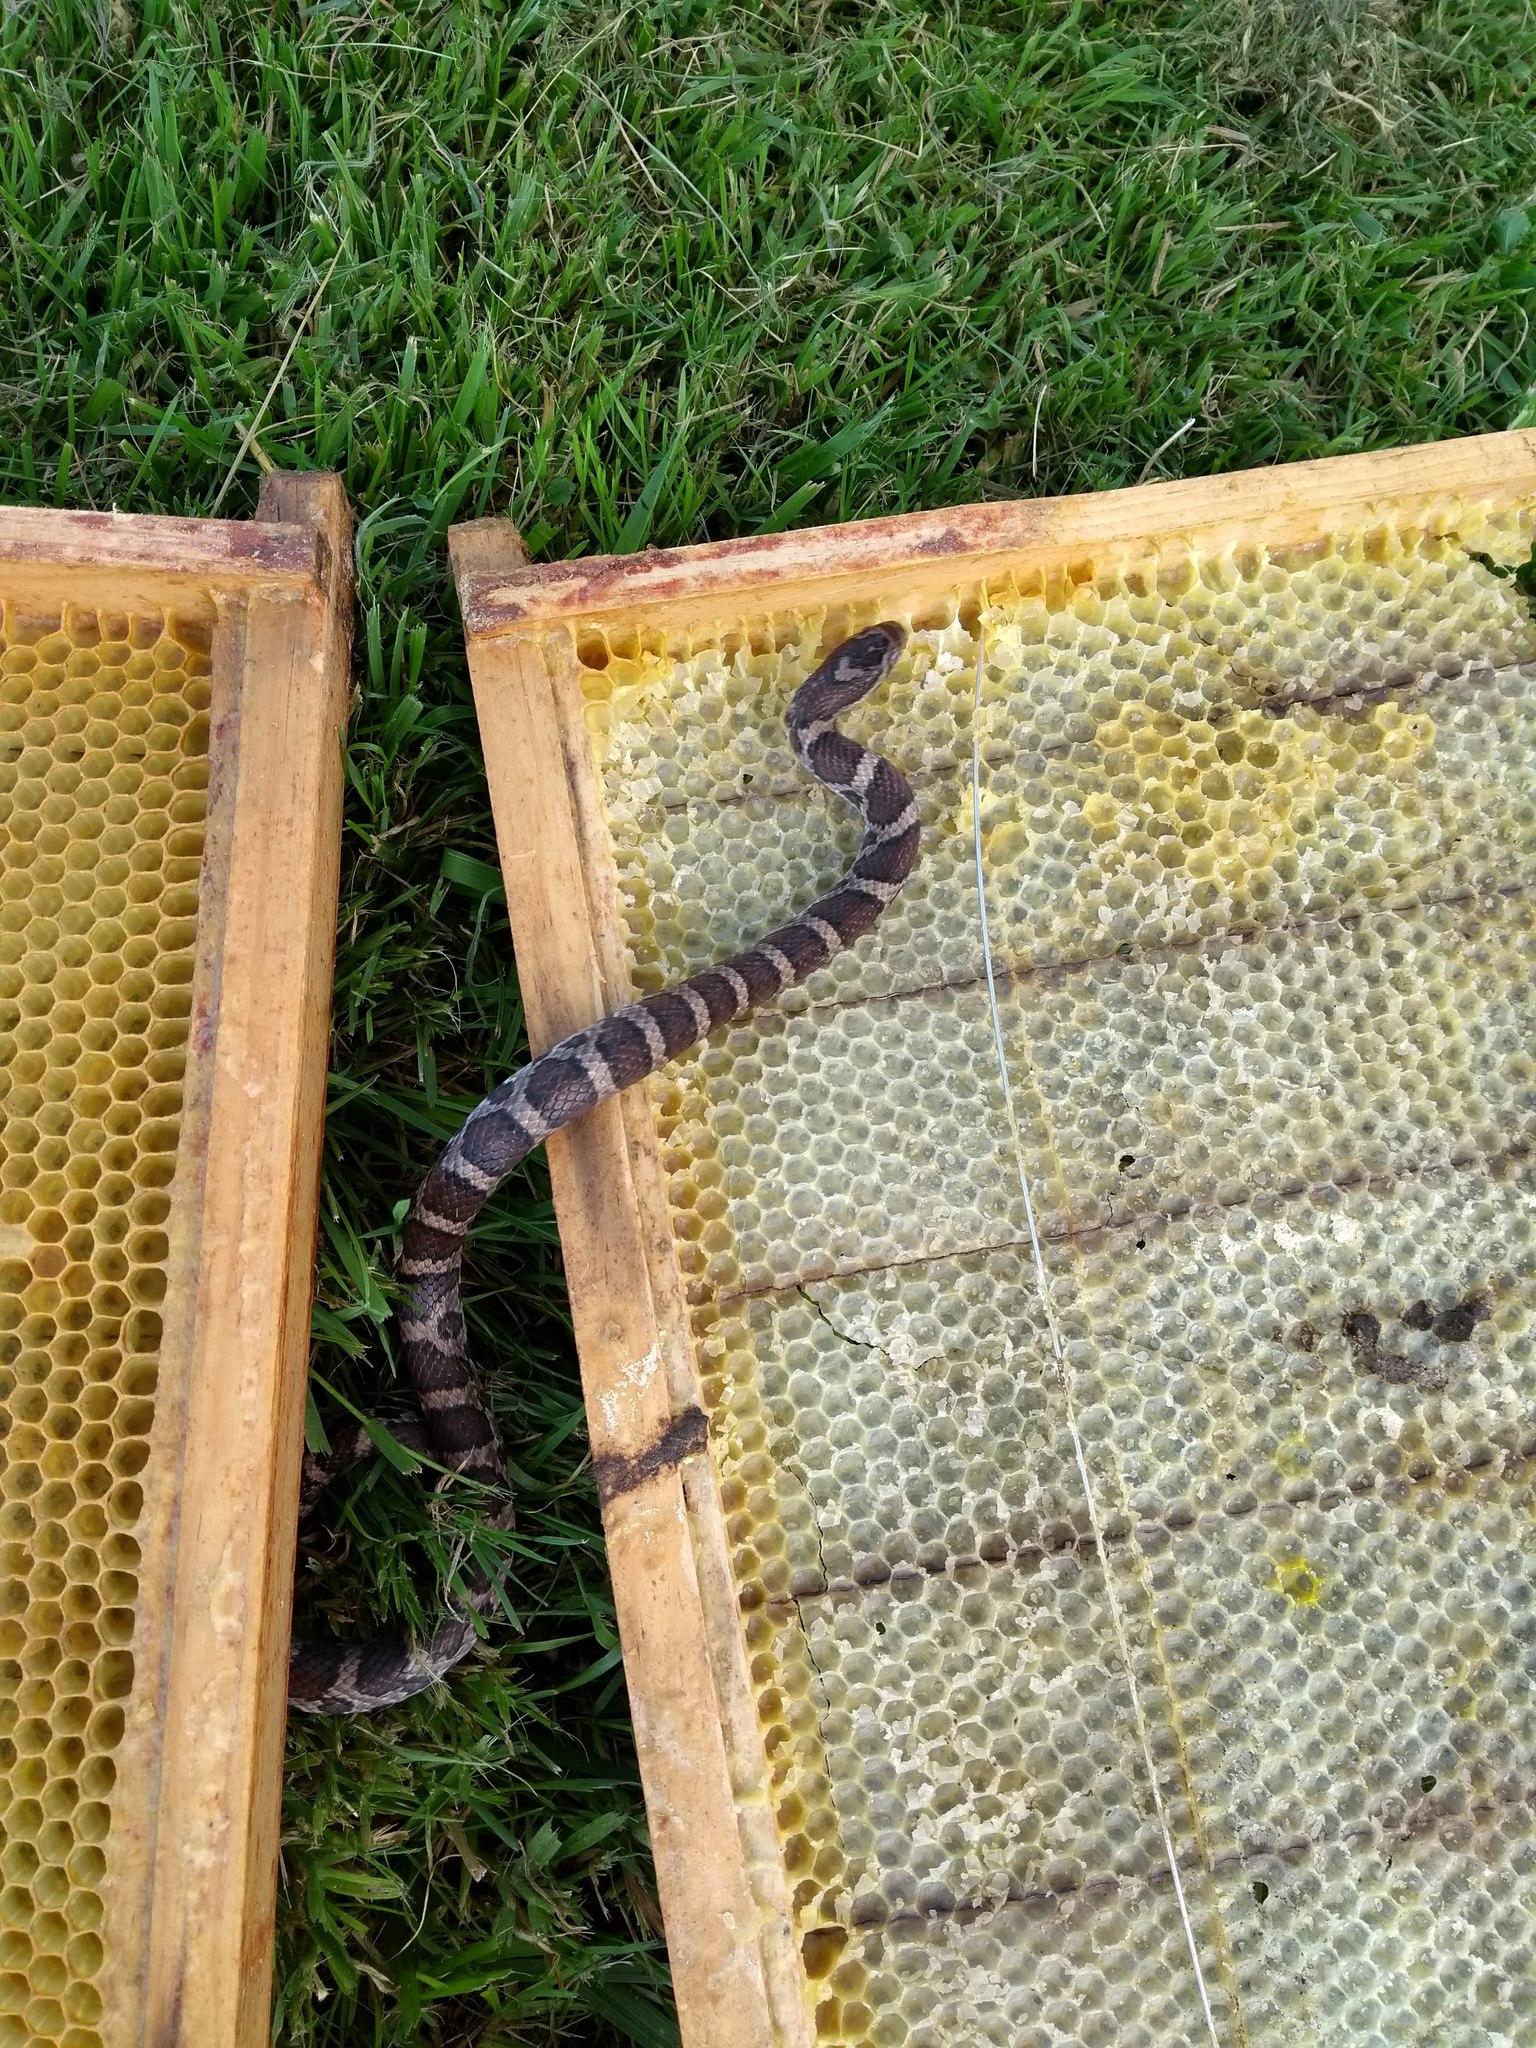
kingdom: Animalia
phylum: Chordata
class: Squamata
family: Colubridae
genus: Lampropeltis
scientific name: Lampropeltis triangulum
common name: Eastern milksnake
